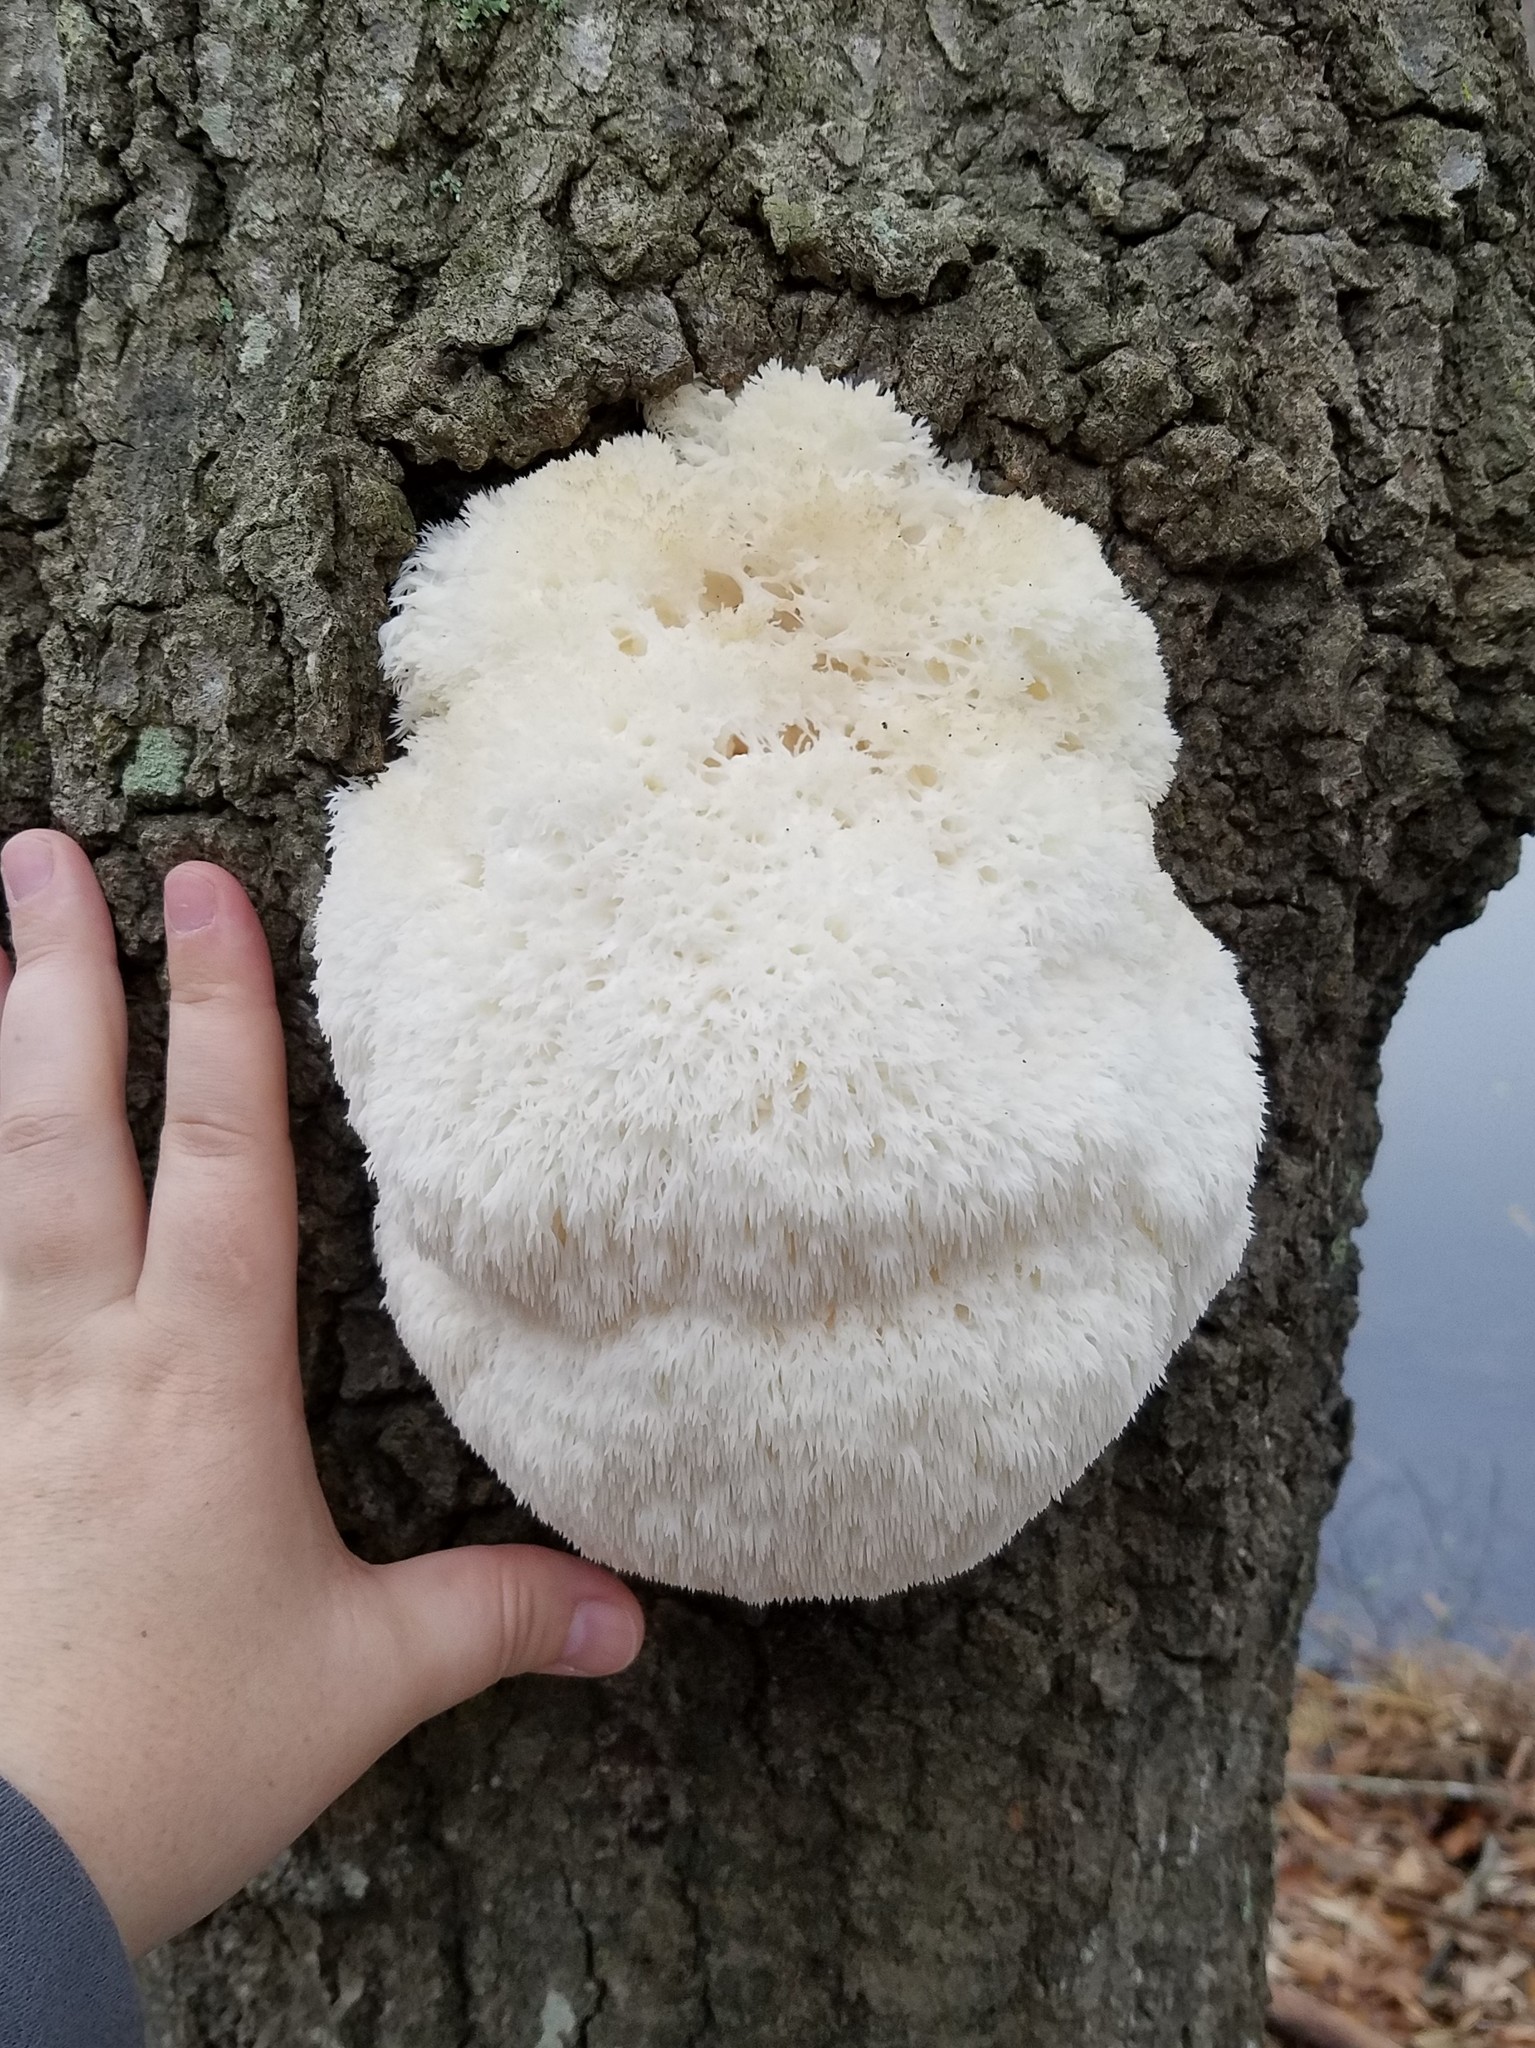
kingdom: Fungi
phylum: Basidiomycota
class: Agaricomycetes
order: Russulales
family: Hericiaceae
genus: Hericium
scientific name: Hericium erinaceus
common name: Bearded tooth
